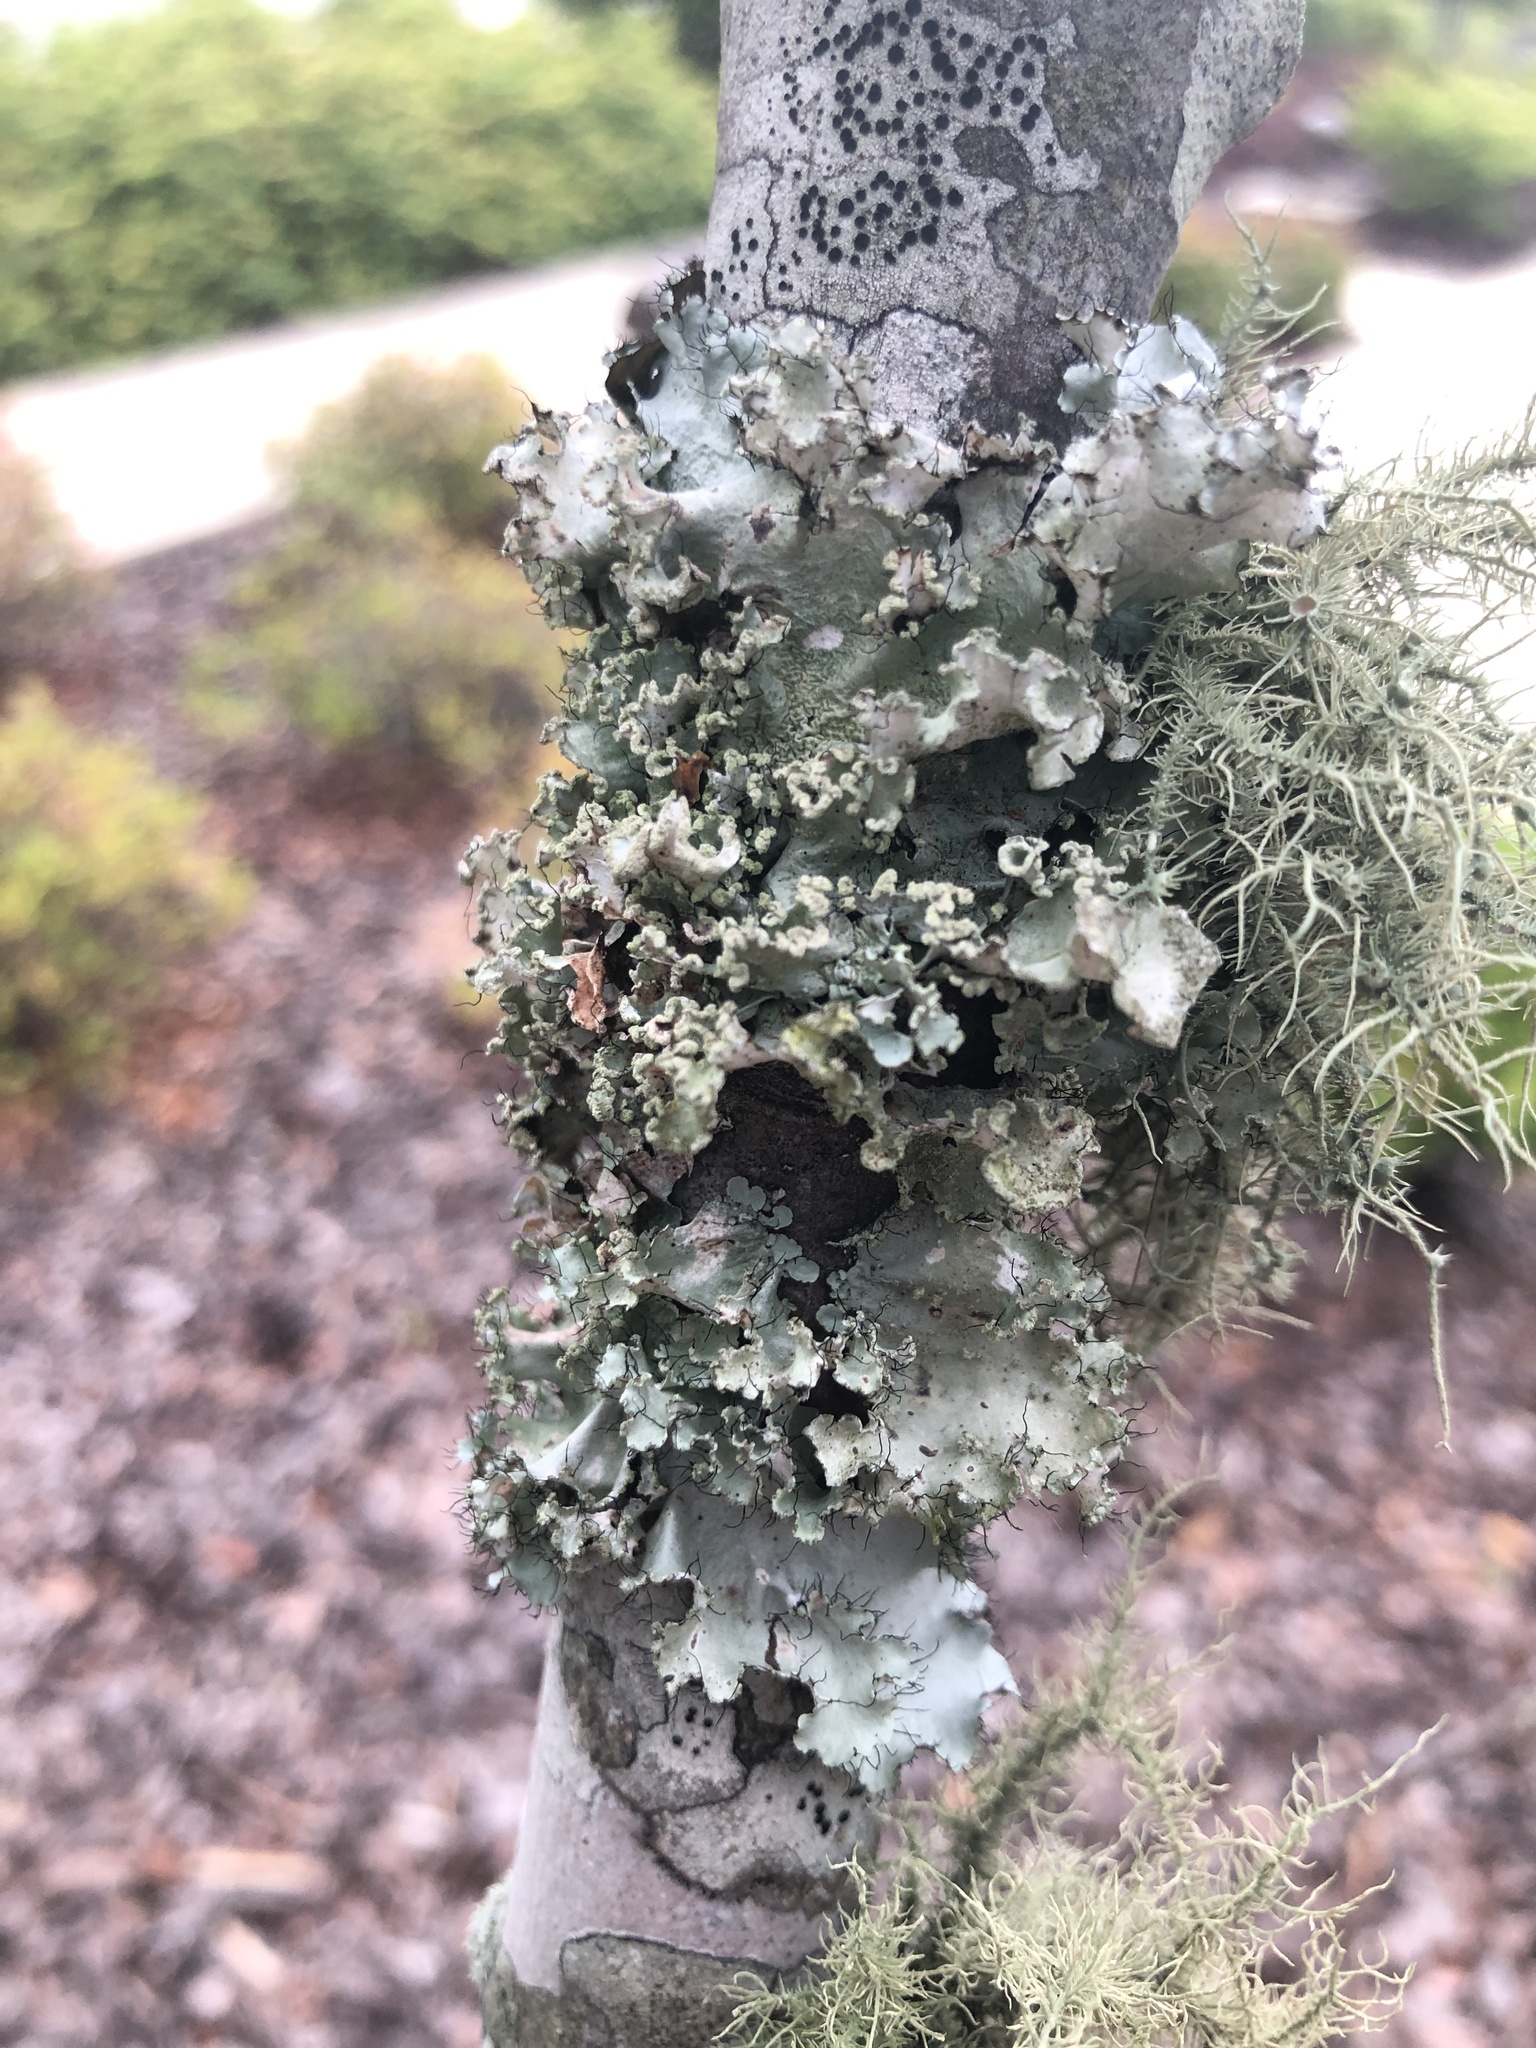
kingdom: Fungi
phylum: Ascomycota
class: Lecanoromycetes
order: Lecanorales
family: Parmeliaceae
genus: Parmotrema
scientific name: Parmotrema hypotropum
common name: Powdered ruffle lichen
